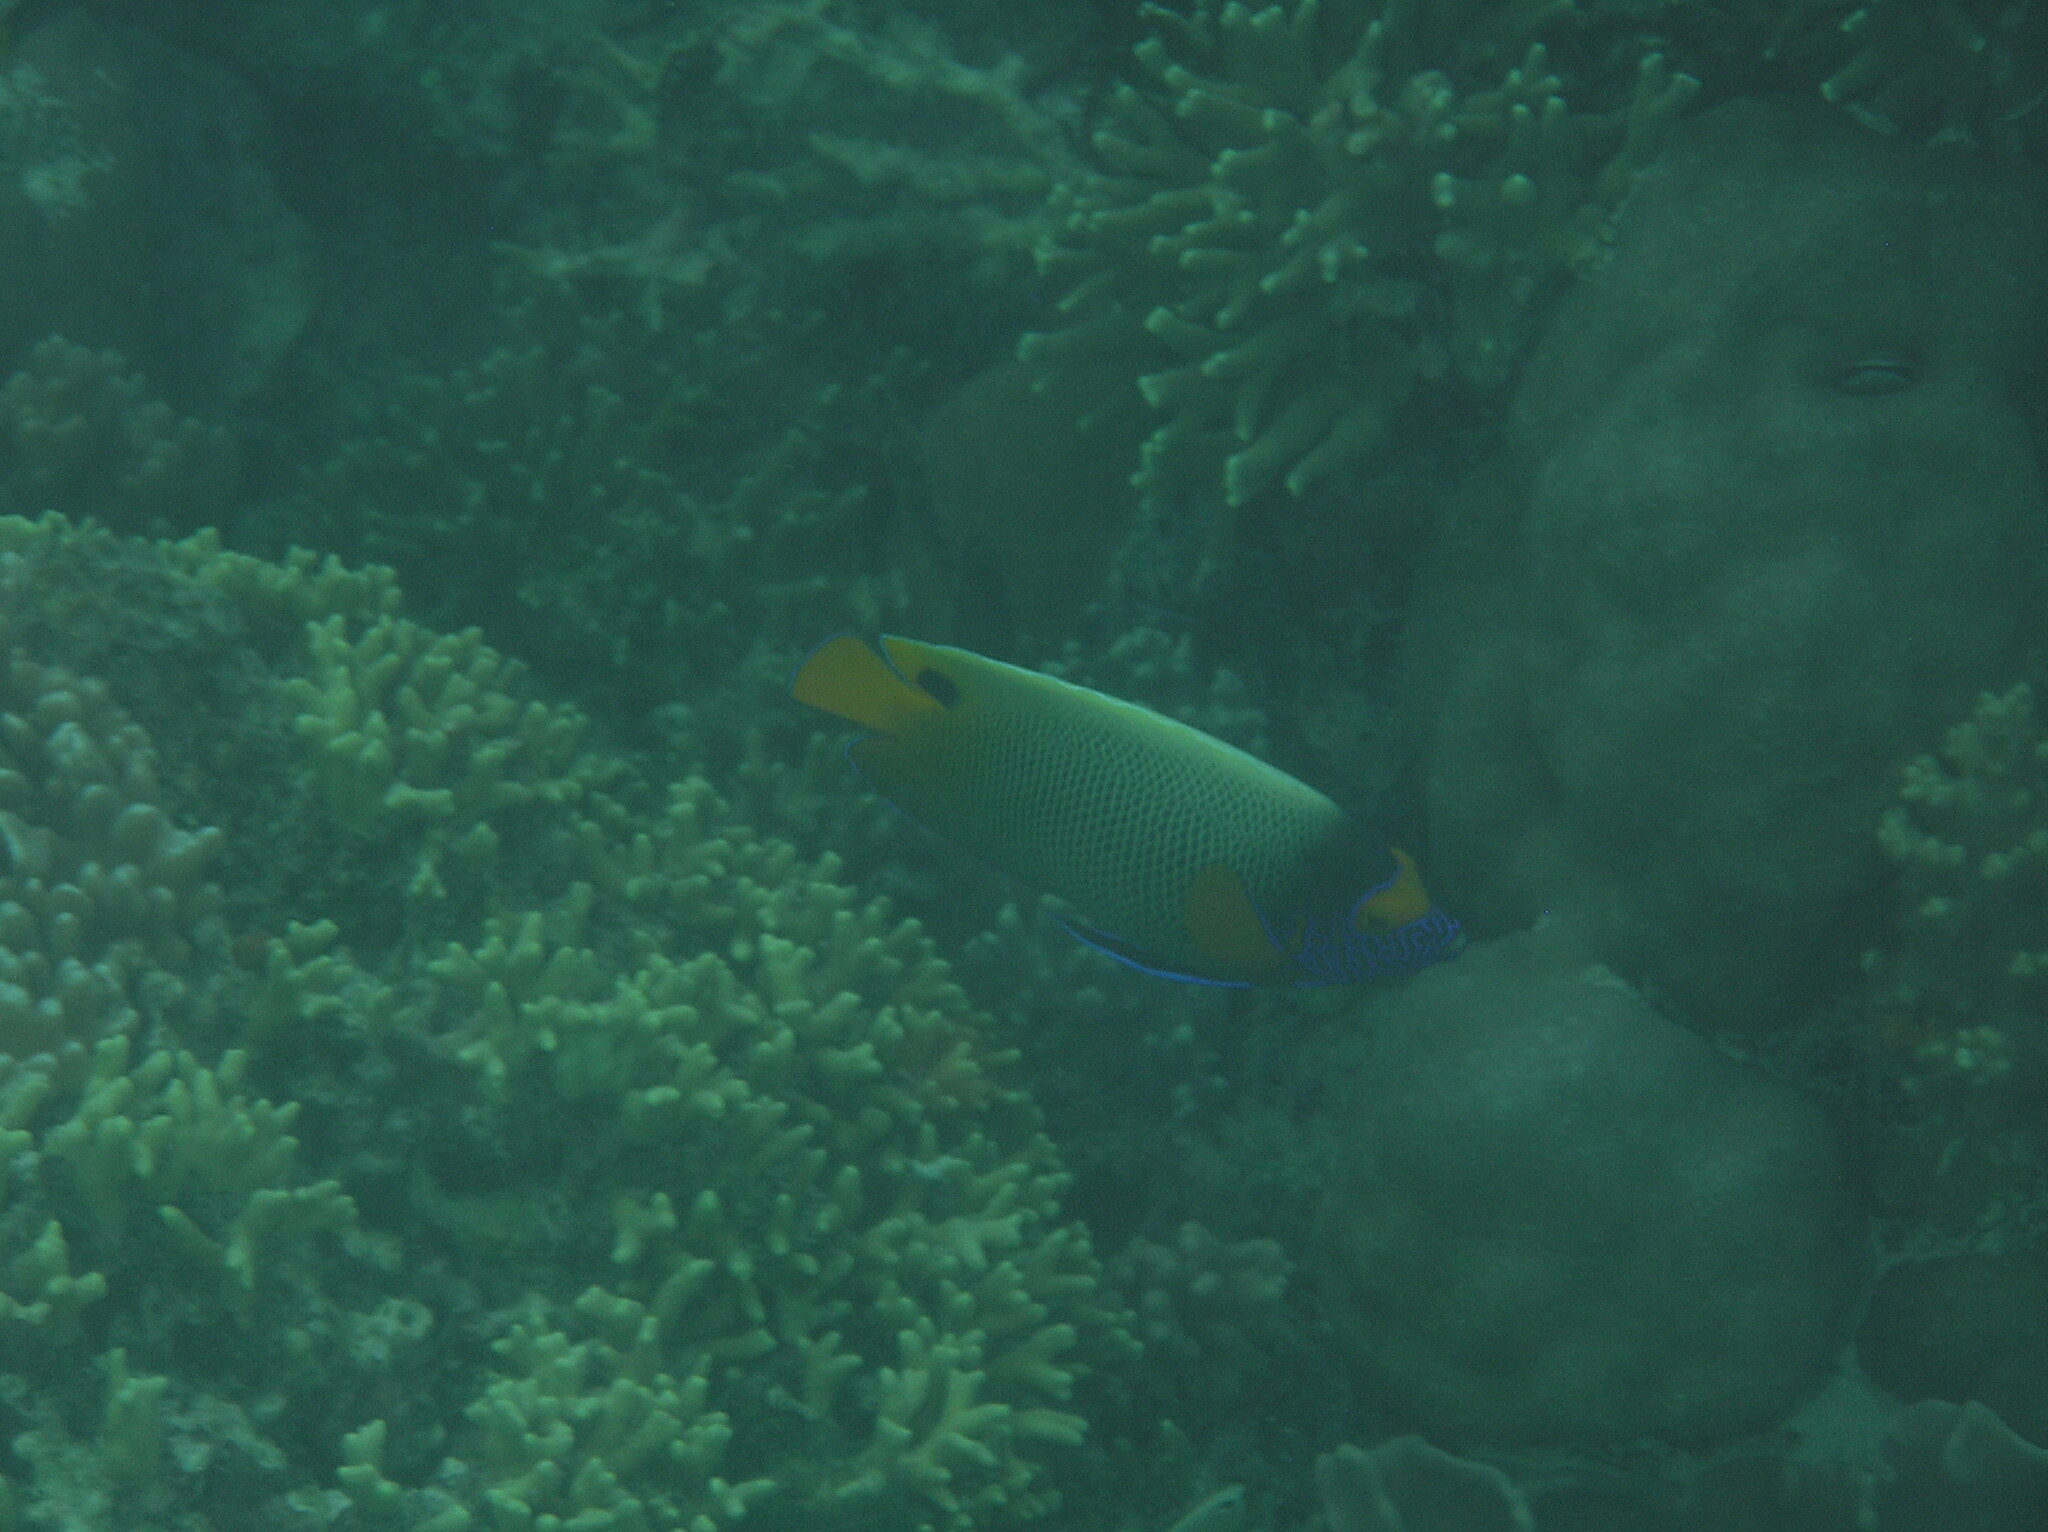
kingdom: Animalia
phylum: Chordata
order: Perciformes
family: Pomacanthidae
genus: Pomacanthus
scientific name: Pomacanthus xanthometopon
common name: Yellow-faced angelfish
